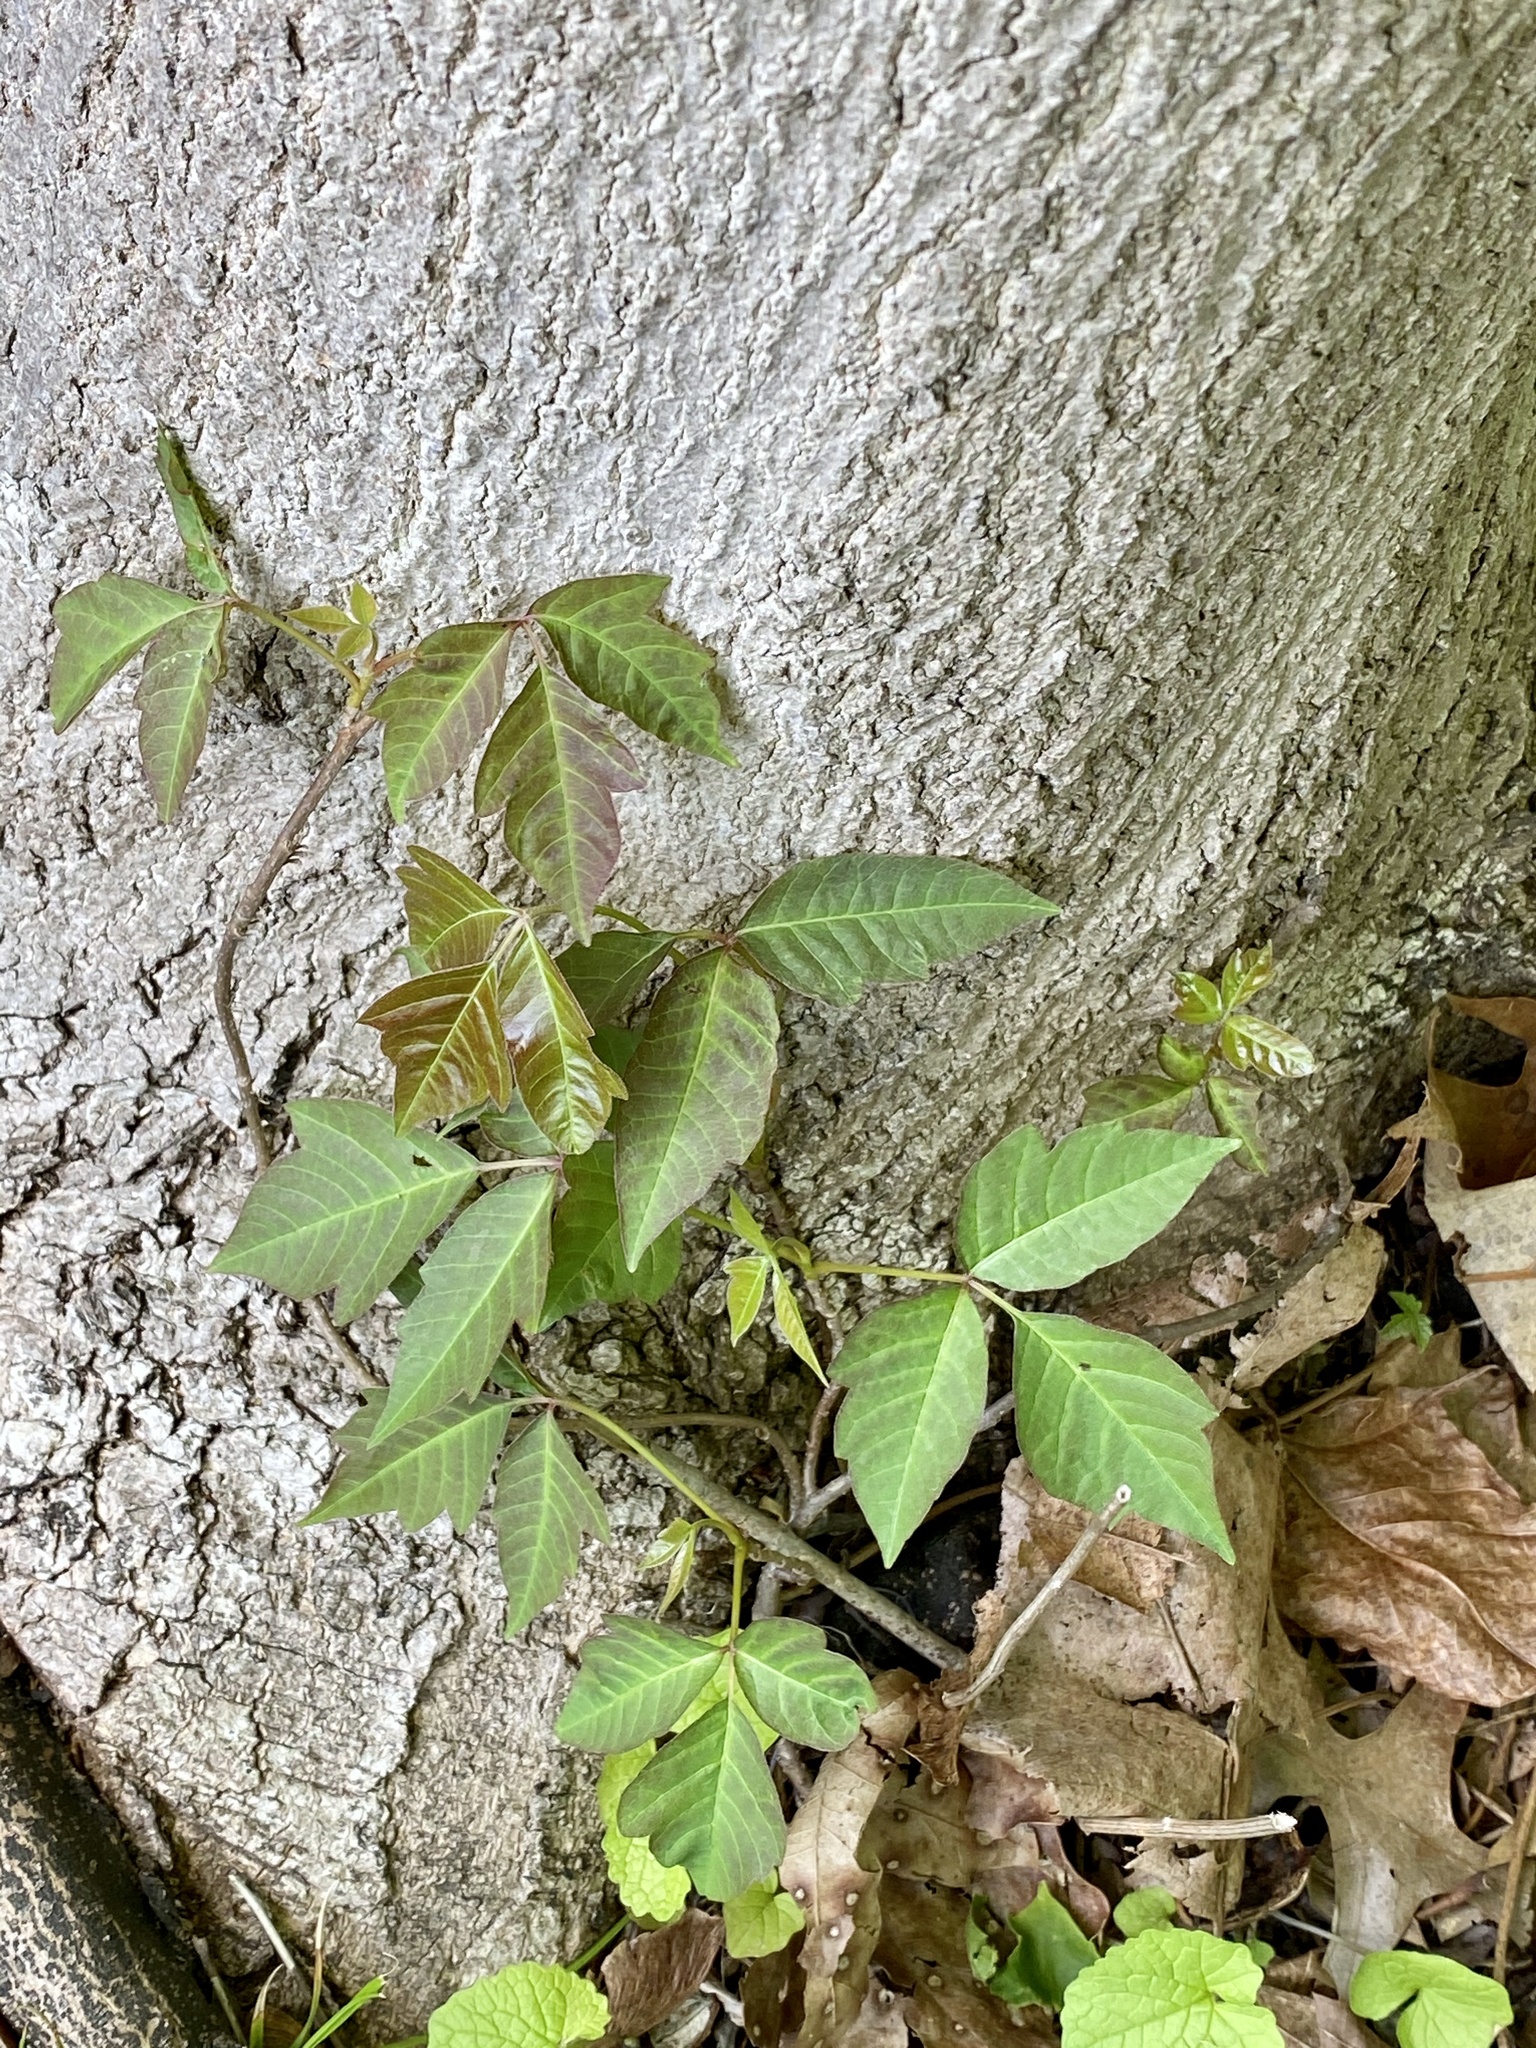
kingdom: Plantae
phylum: Tracheophyta
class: Magnoliopsida
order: Sapindales
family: Anacardiaceae
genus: Toxicodendron
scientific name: Toxicodendron radicans
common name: Poison ivy
